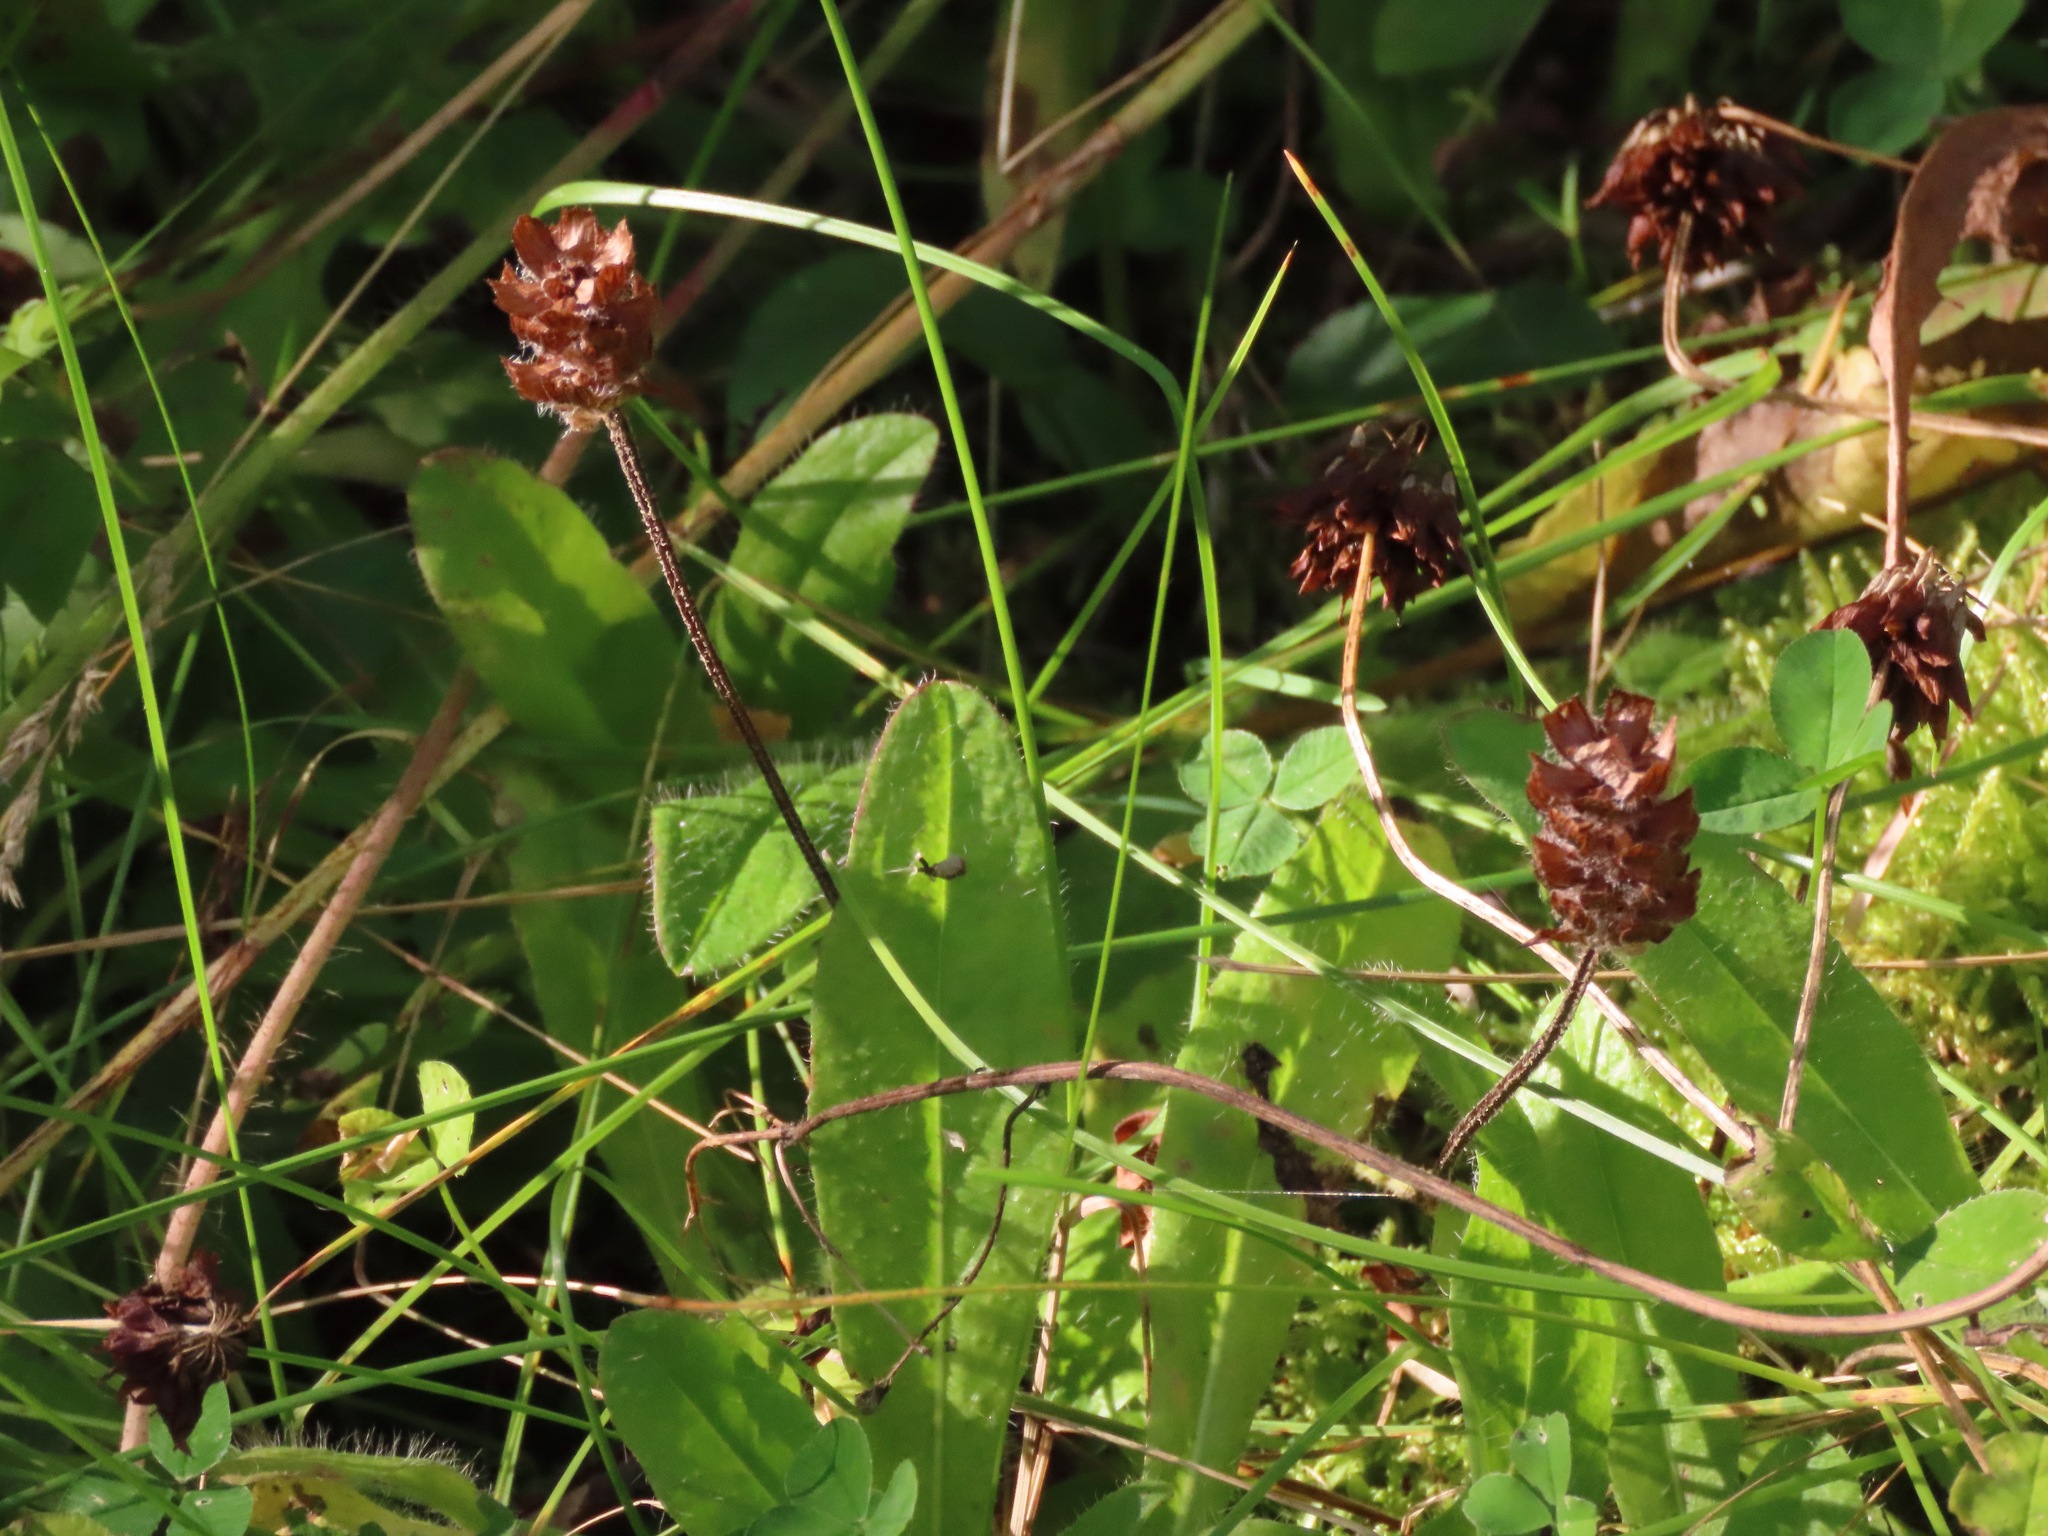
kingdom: Plantae
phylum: Tracheophyta
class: Magnoliopsida
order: Lamiales
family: Lamiaceae
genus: Prunella
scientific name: Prunella vulgaris
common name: Heal-all
